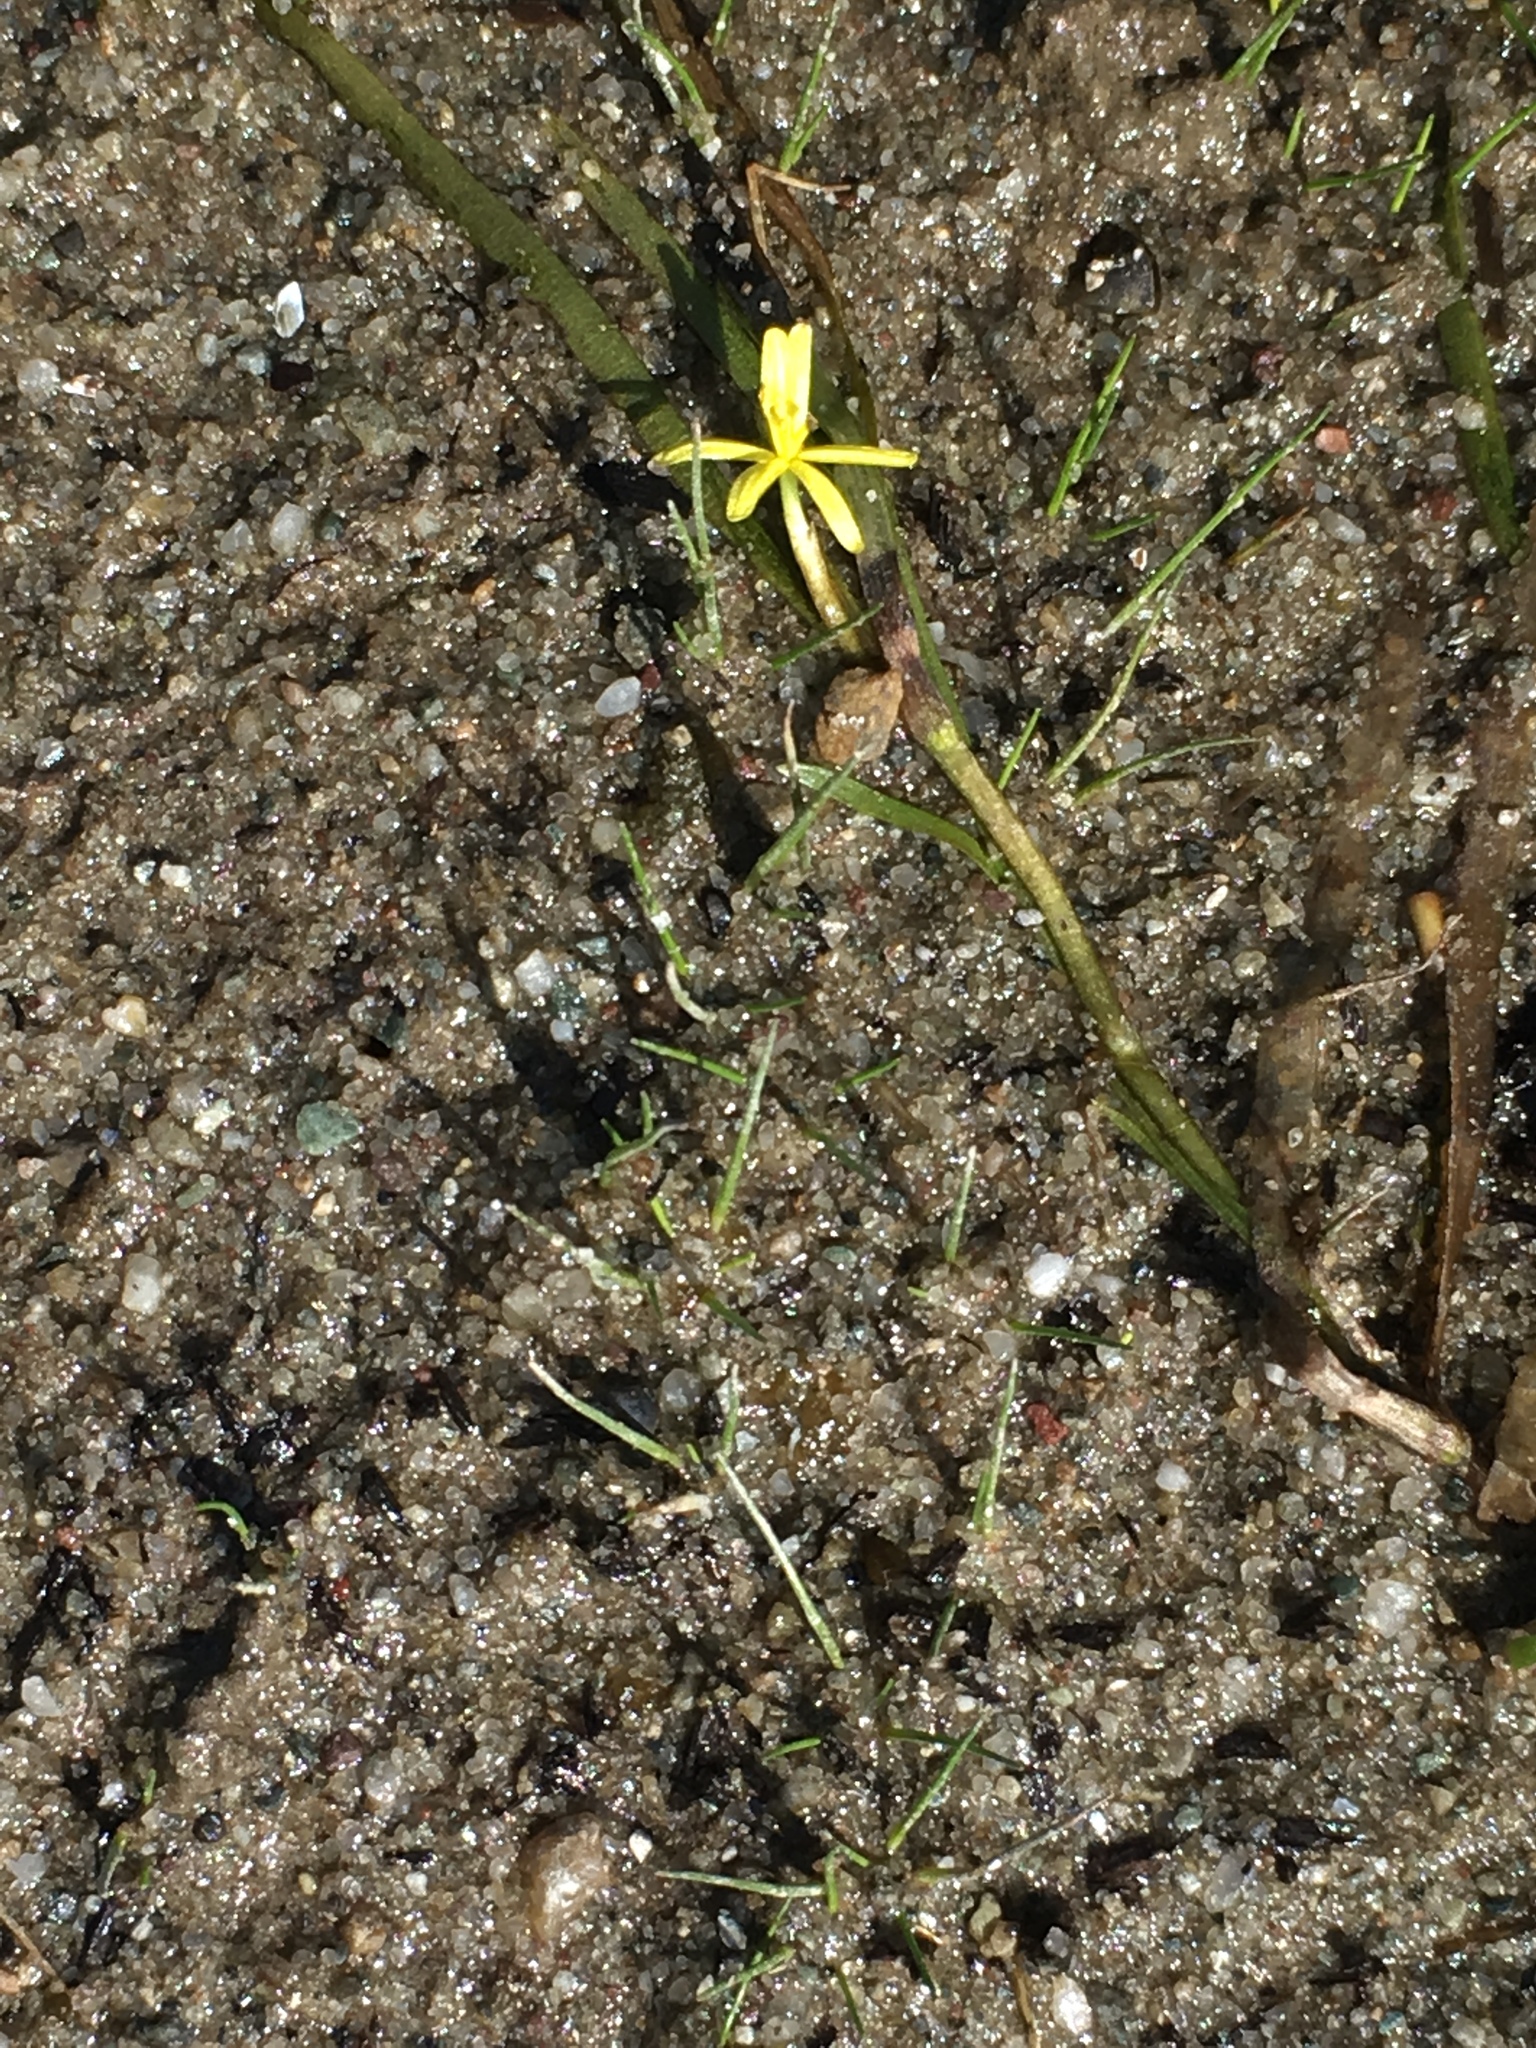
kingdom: Plantae
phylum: Tracheophyta
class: Liliopsida
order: Commelinales
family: Pontederiaceae
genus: Heteranthera
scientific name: Heteranthera dubia
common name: Grass-leaved mud plantain
